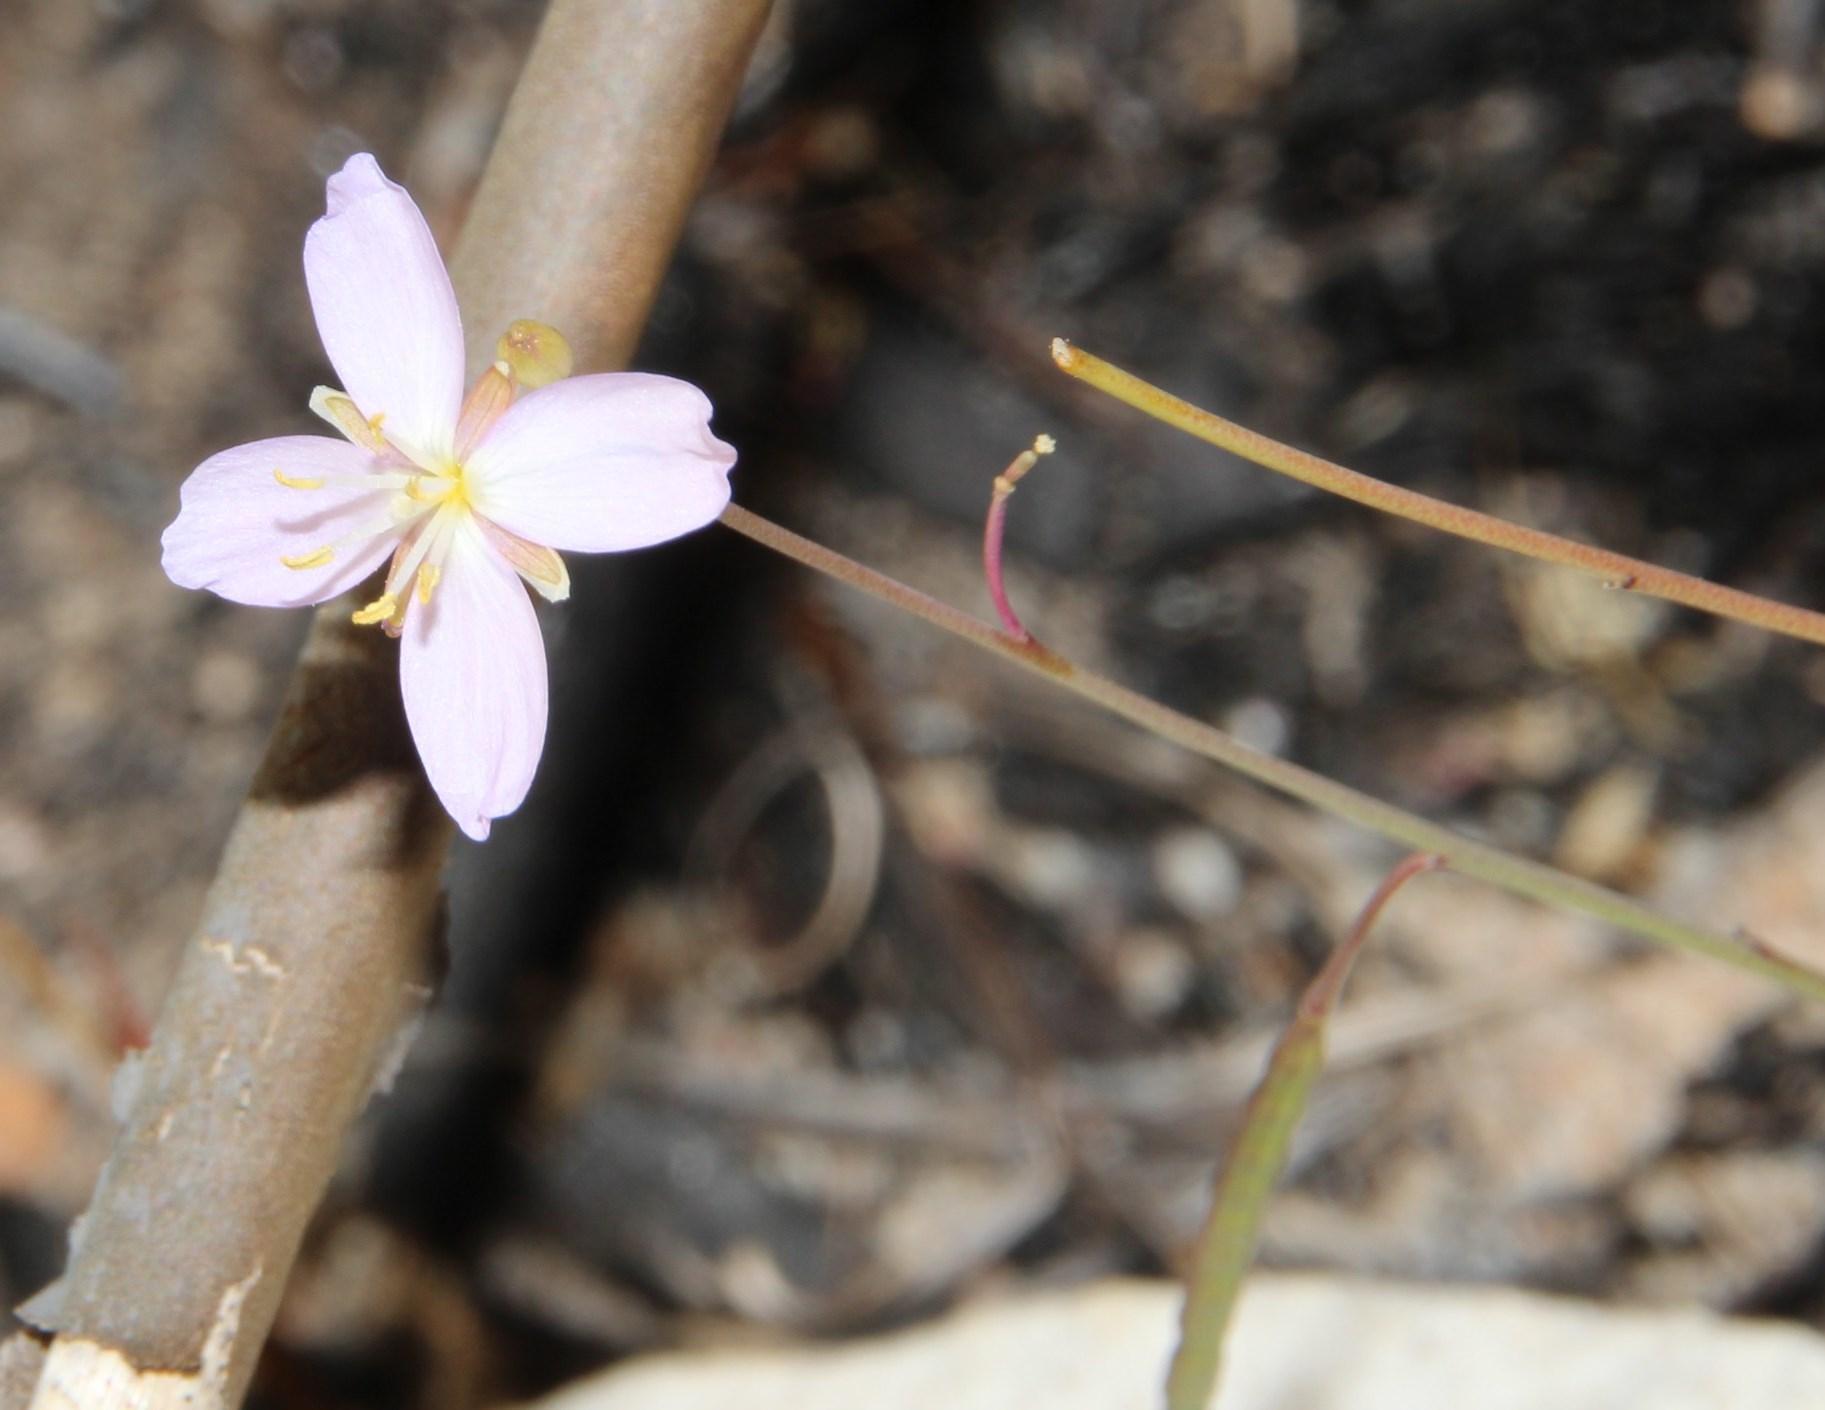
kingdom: Plantae
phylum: Tracheophyta
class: Magnoliopsida
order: Brassicales
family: Brassicaceae
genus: Heliophila
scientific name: Heliophila elata
